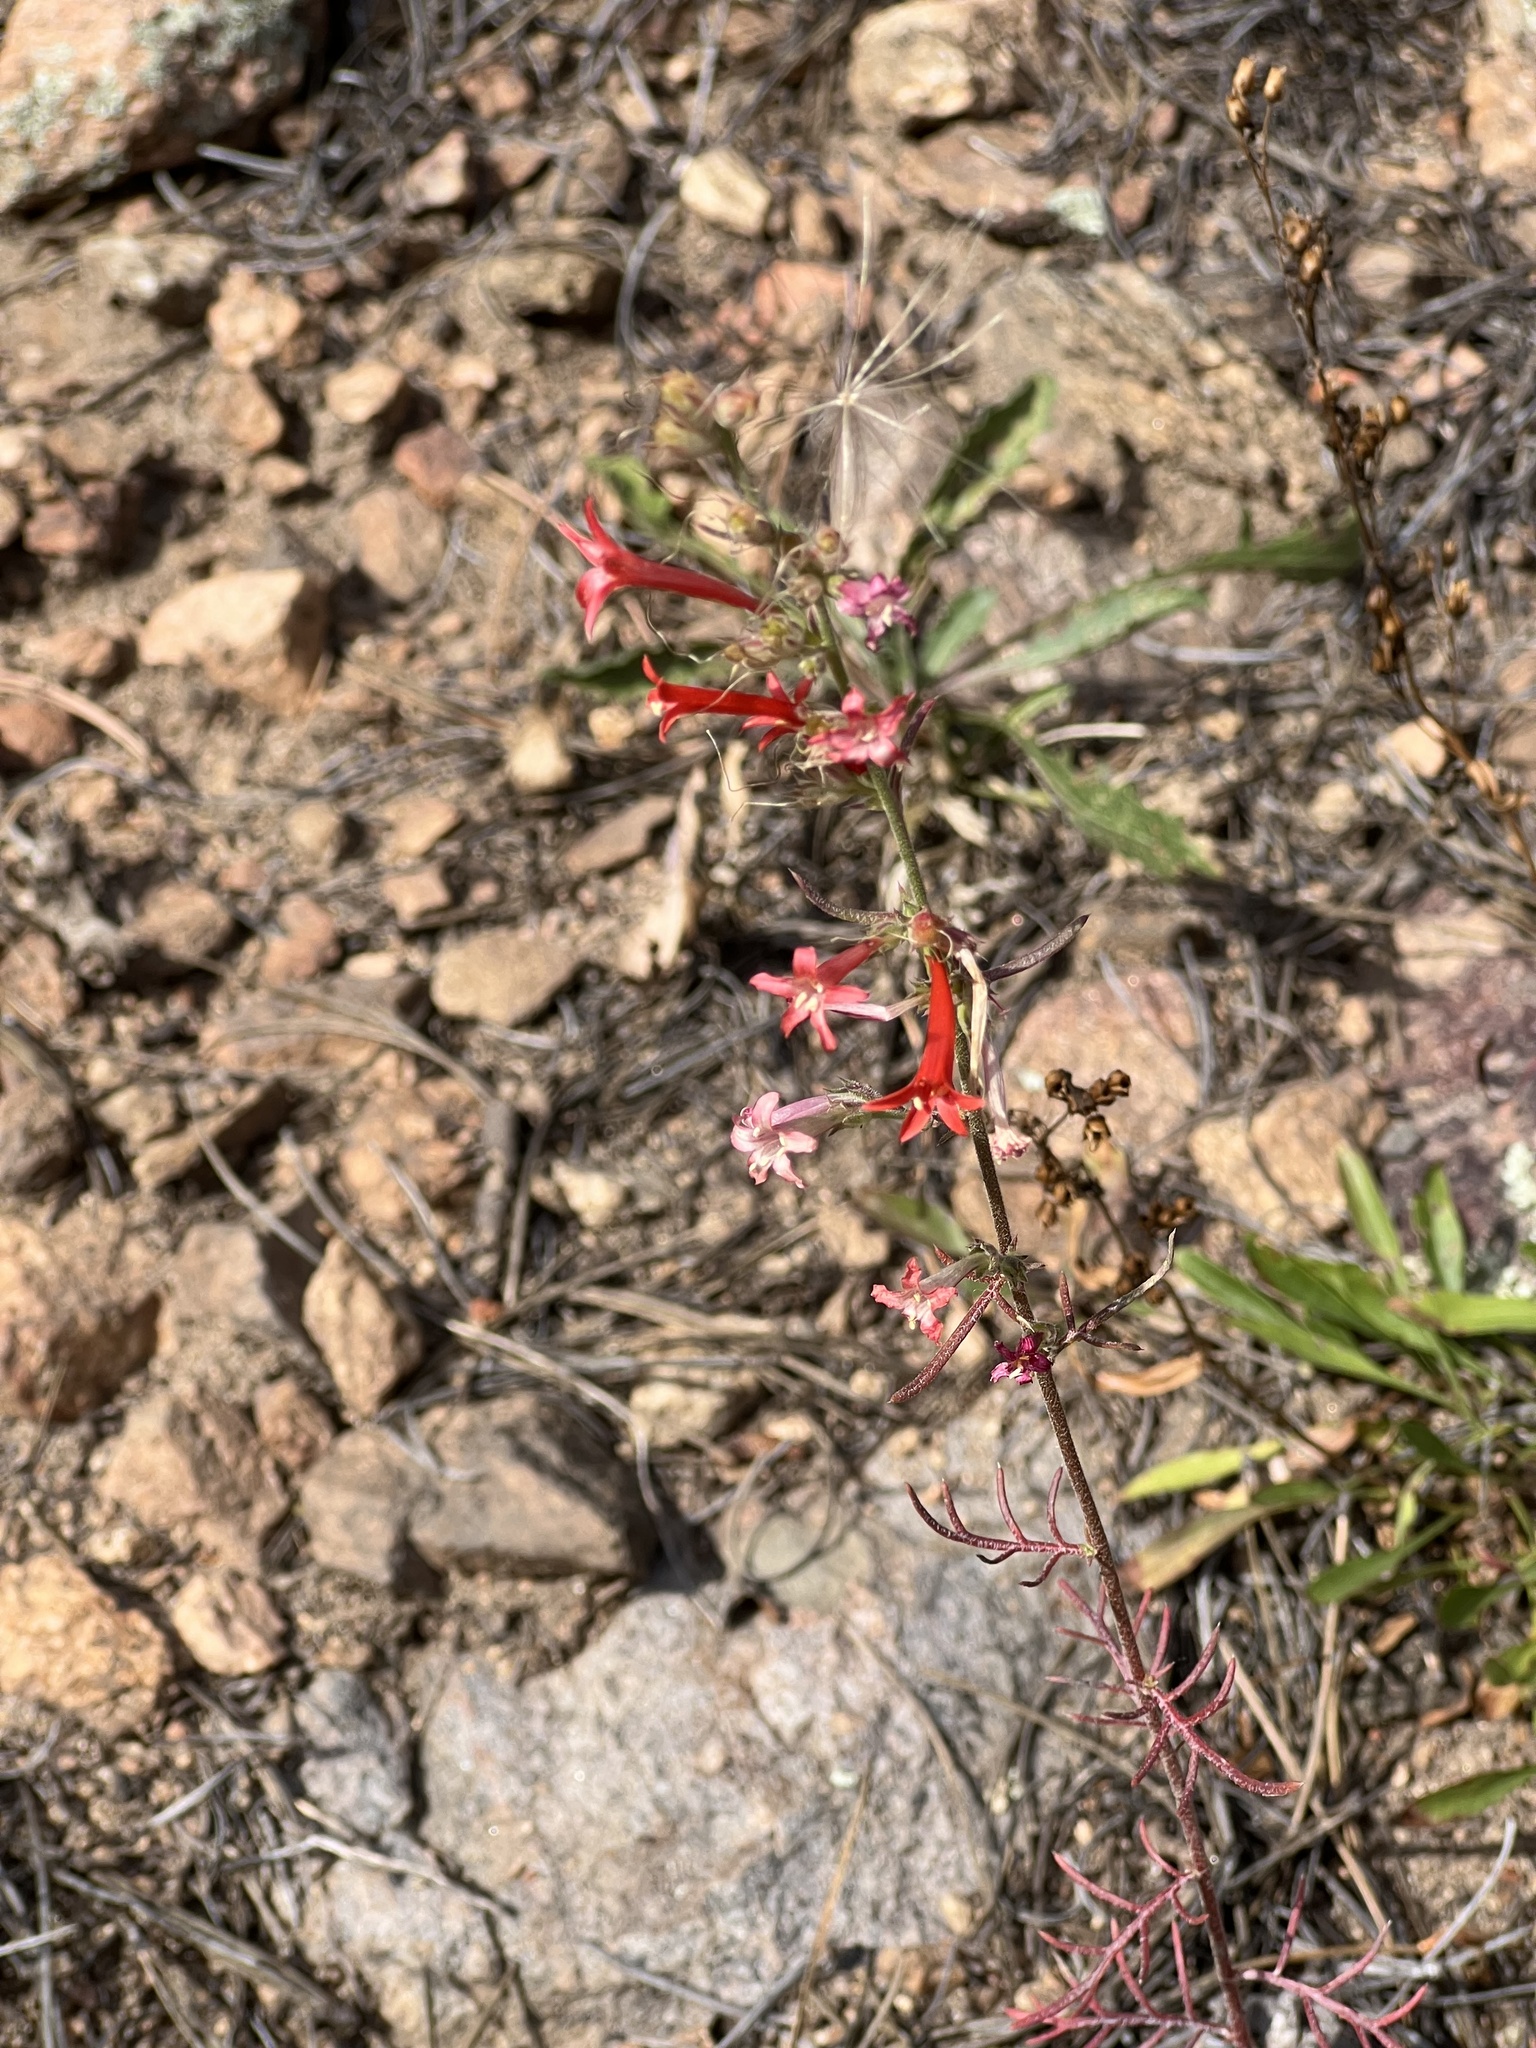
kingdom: Plantae
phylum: Tracheophyta
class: Magnoliopsida
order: Ericales
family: Polemoniaceae
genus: Ipomopsis
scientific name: Ipomopsis aggregata
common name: Scarlet gilia
